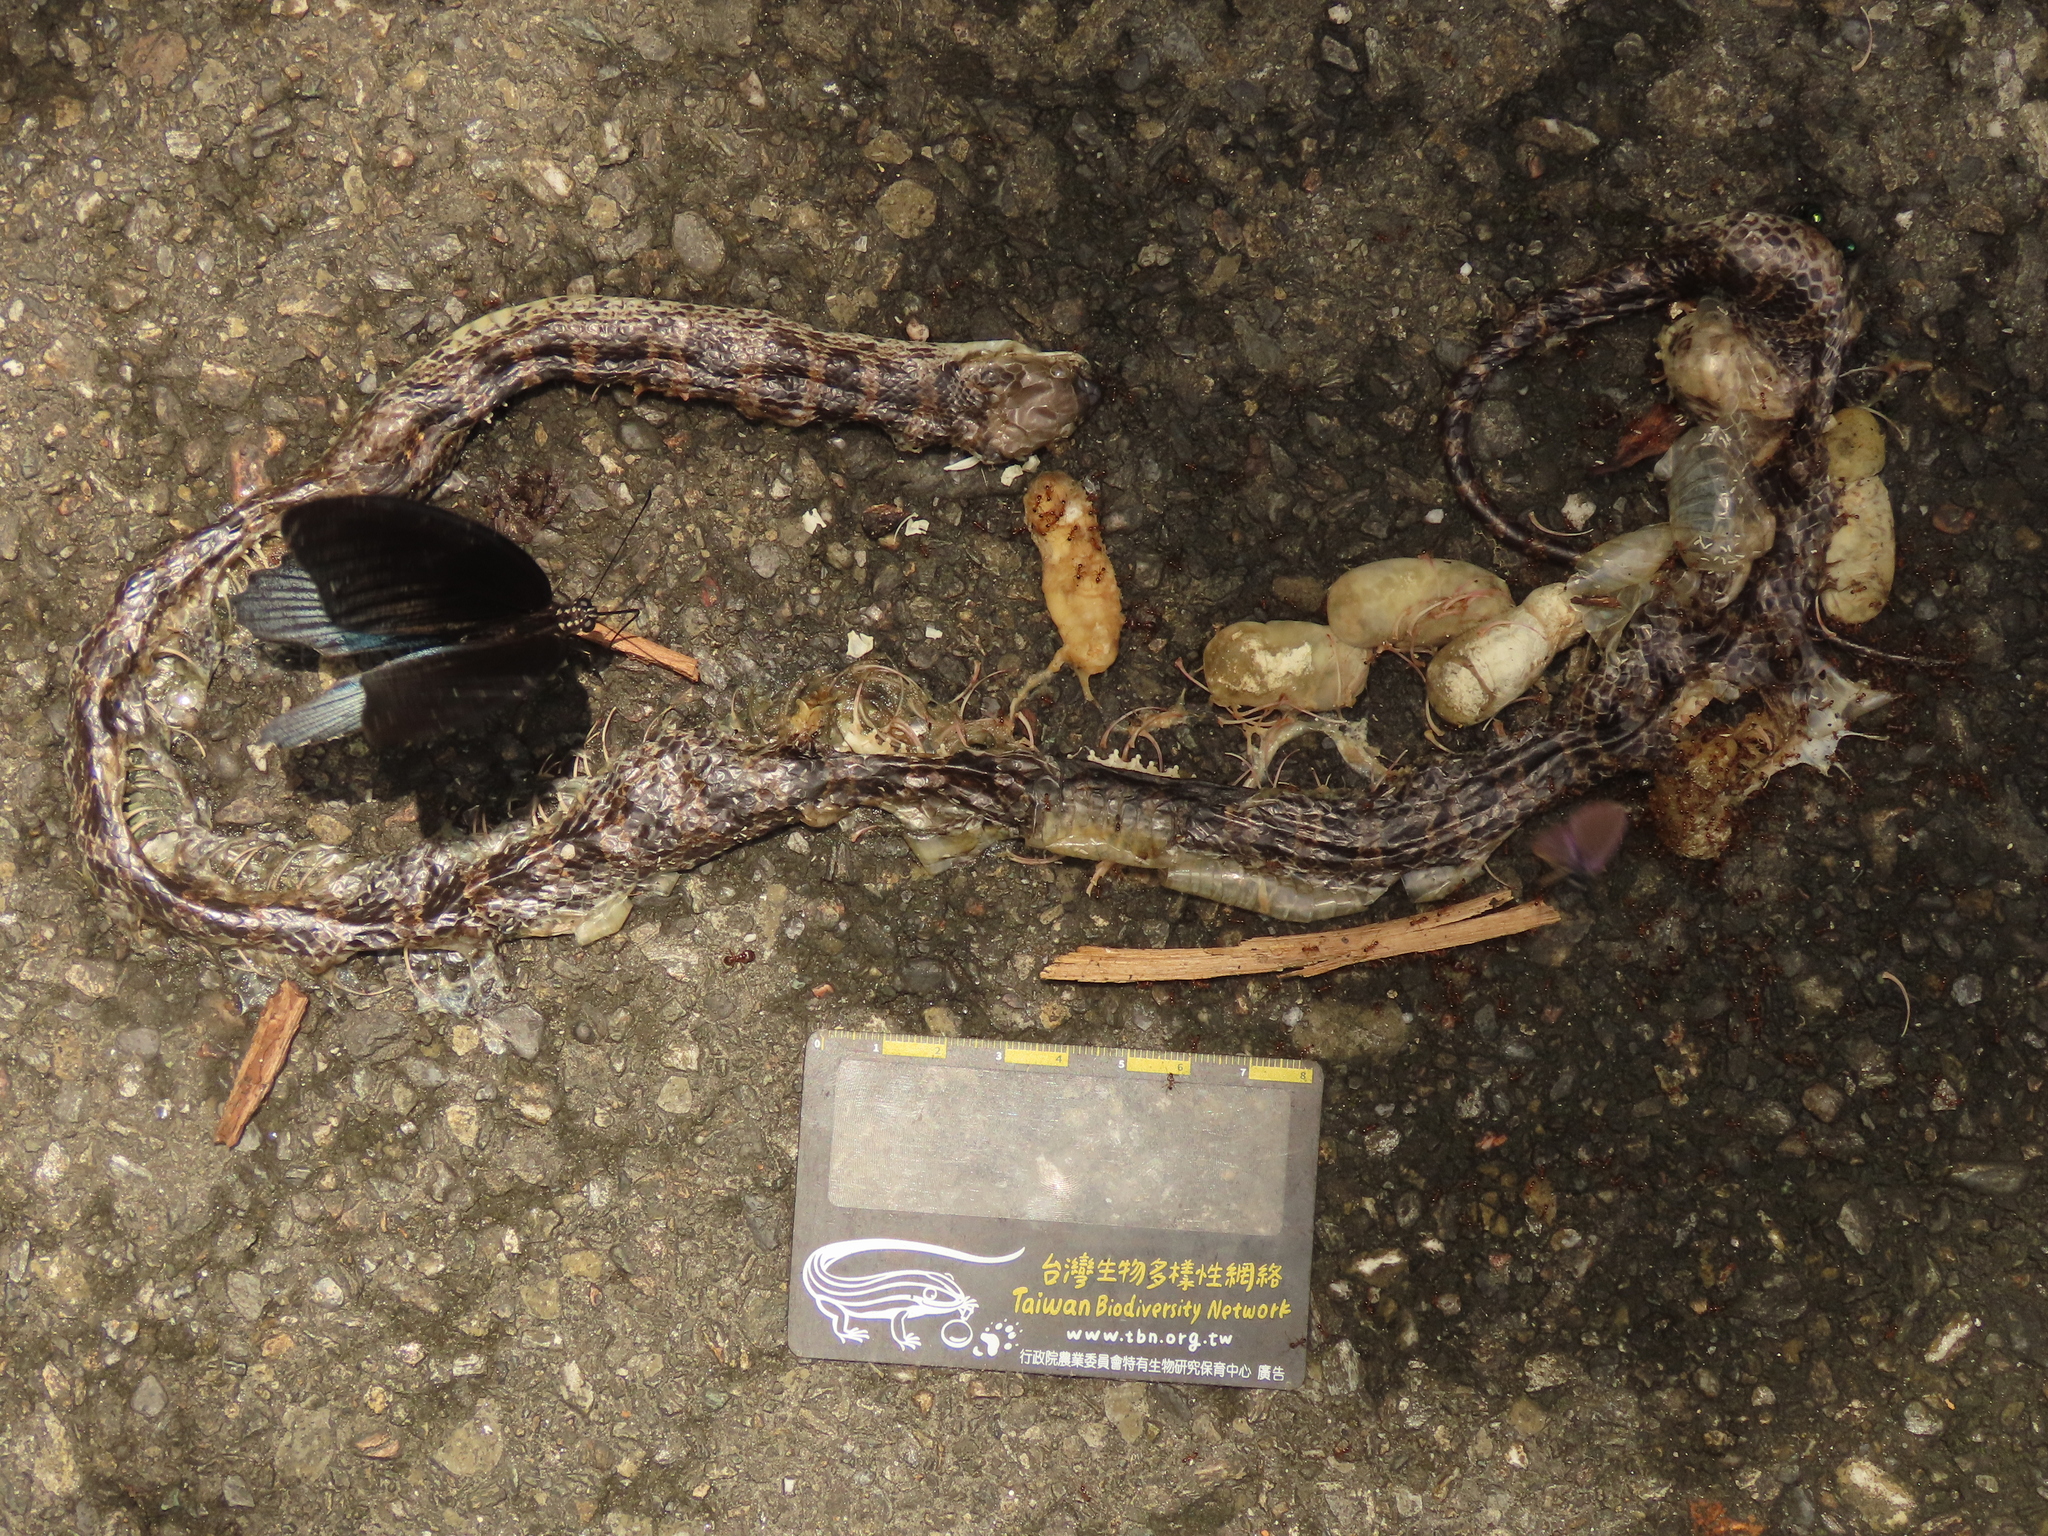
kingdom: Animalia
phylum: Arthropoda
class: Insecta
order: Lepidoptera
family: Papilionidae
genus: Papilio
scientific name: Papilio memnon
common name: Great mormon
